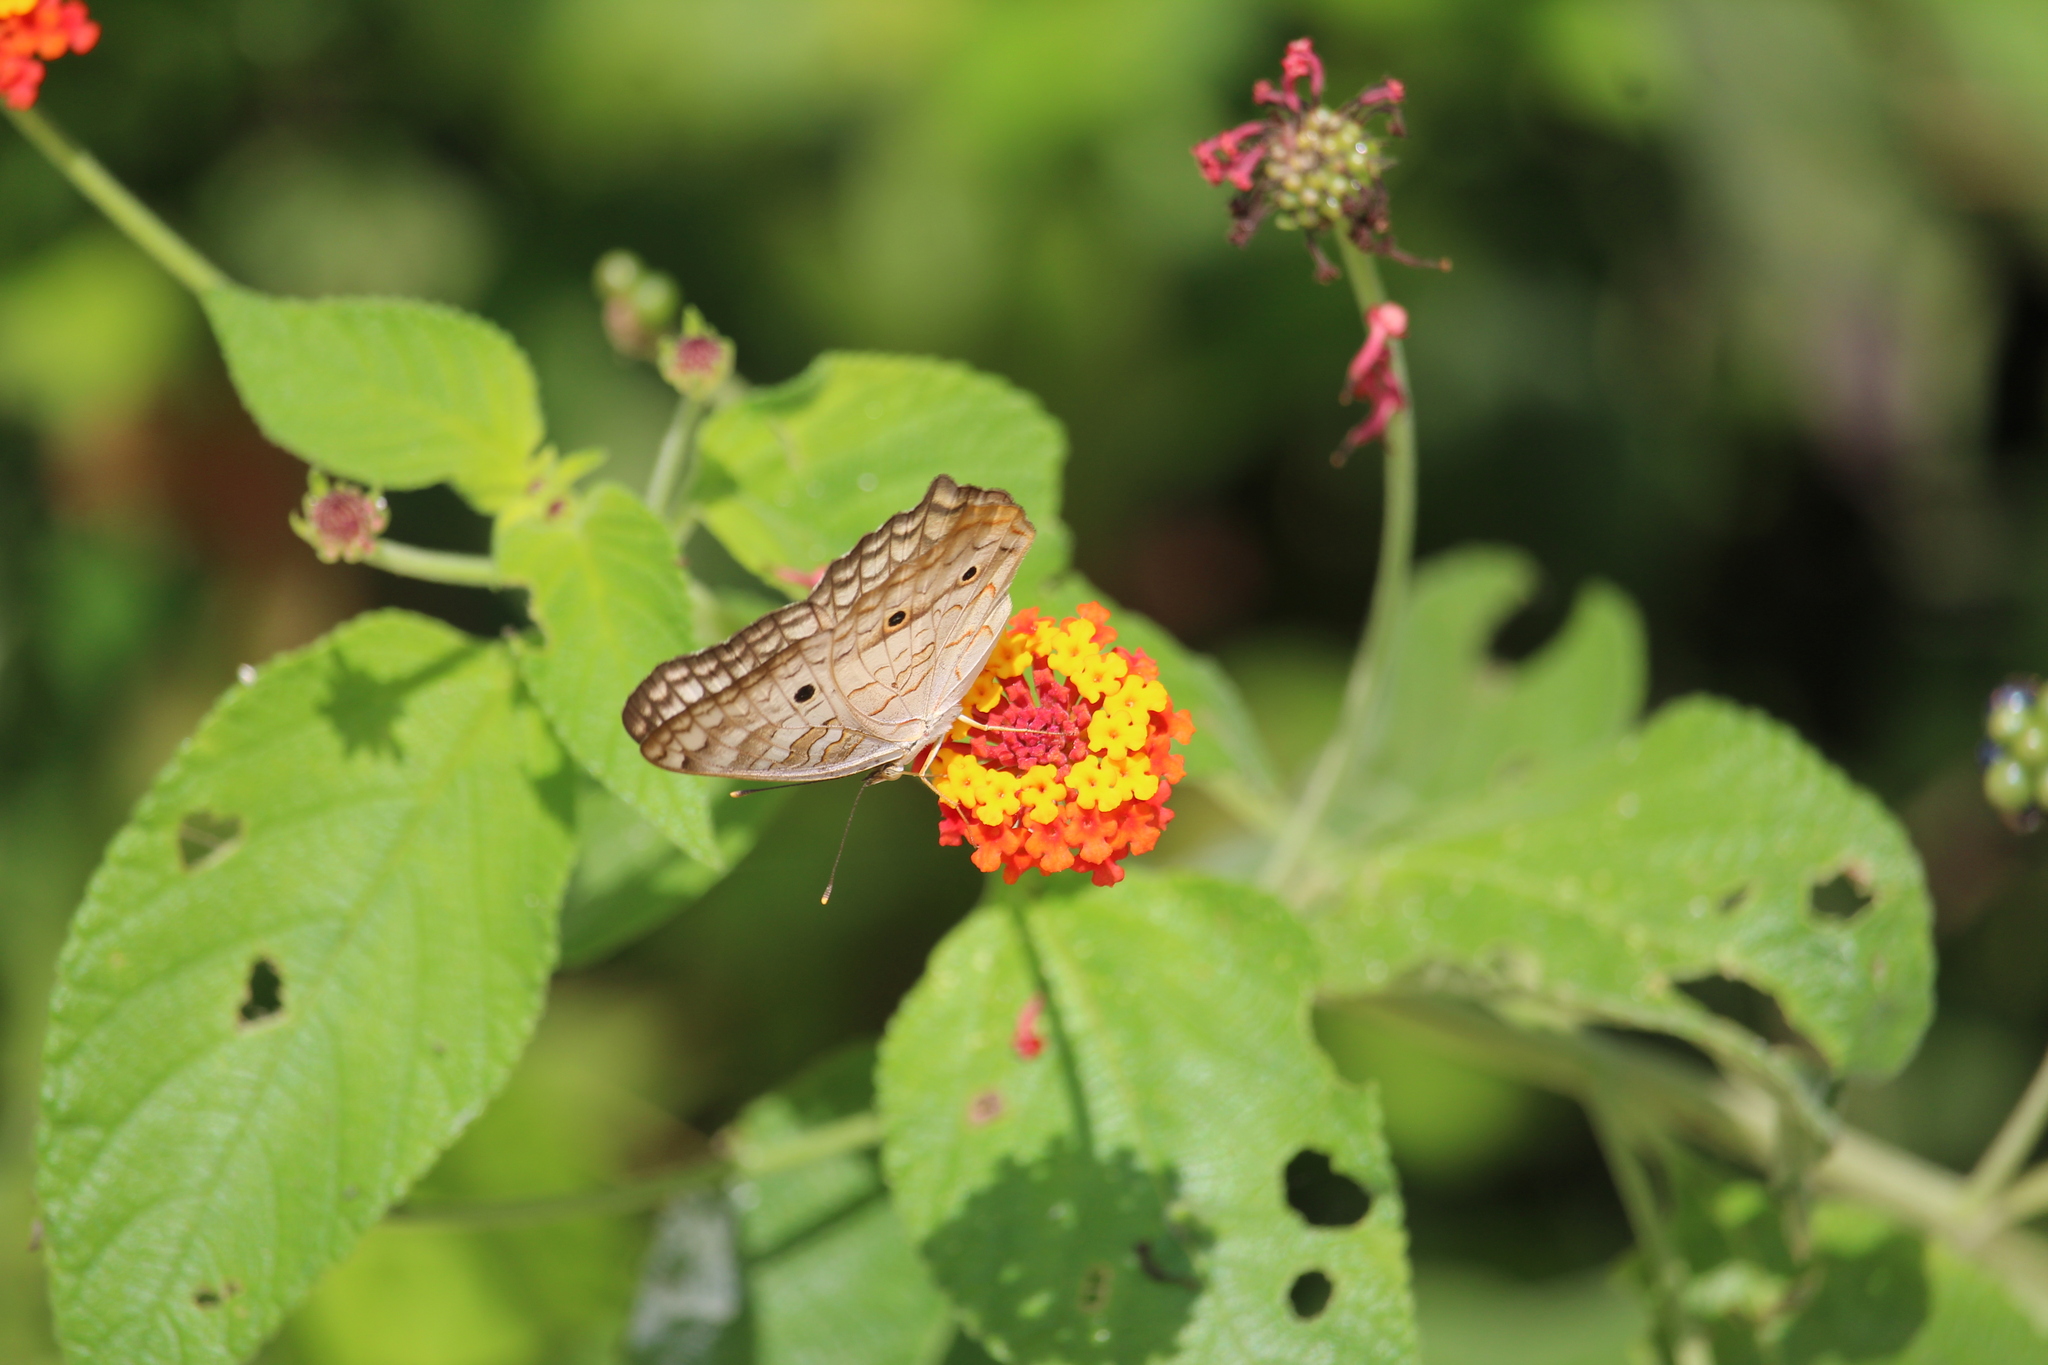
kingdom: Animalia
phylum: Arthropoda
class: Insecta
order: Lepidoptera
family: Nymphalidae
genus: Anartia
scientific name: Anartia jatrophae
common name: White peacock
